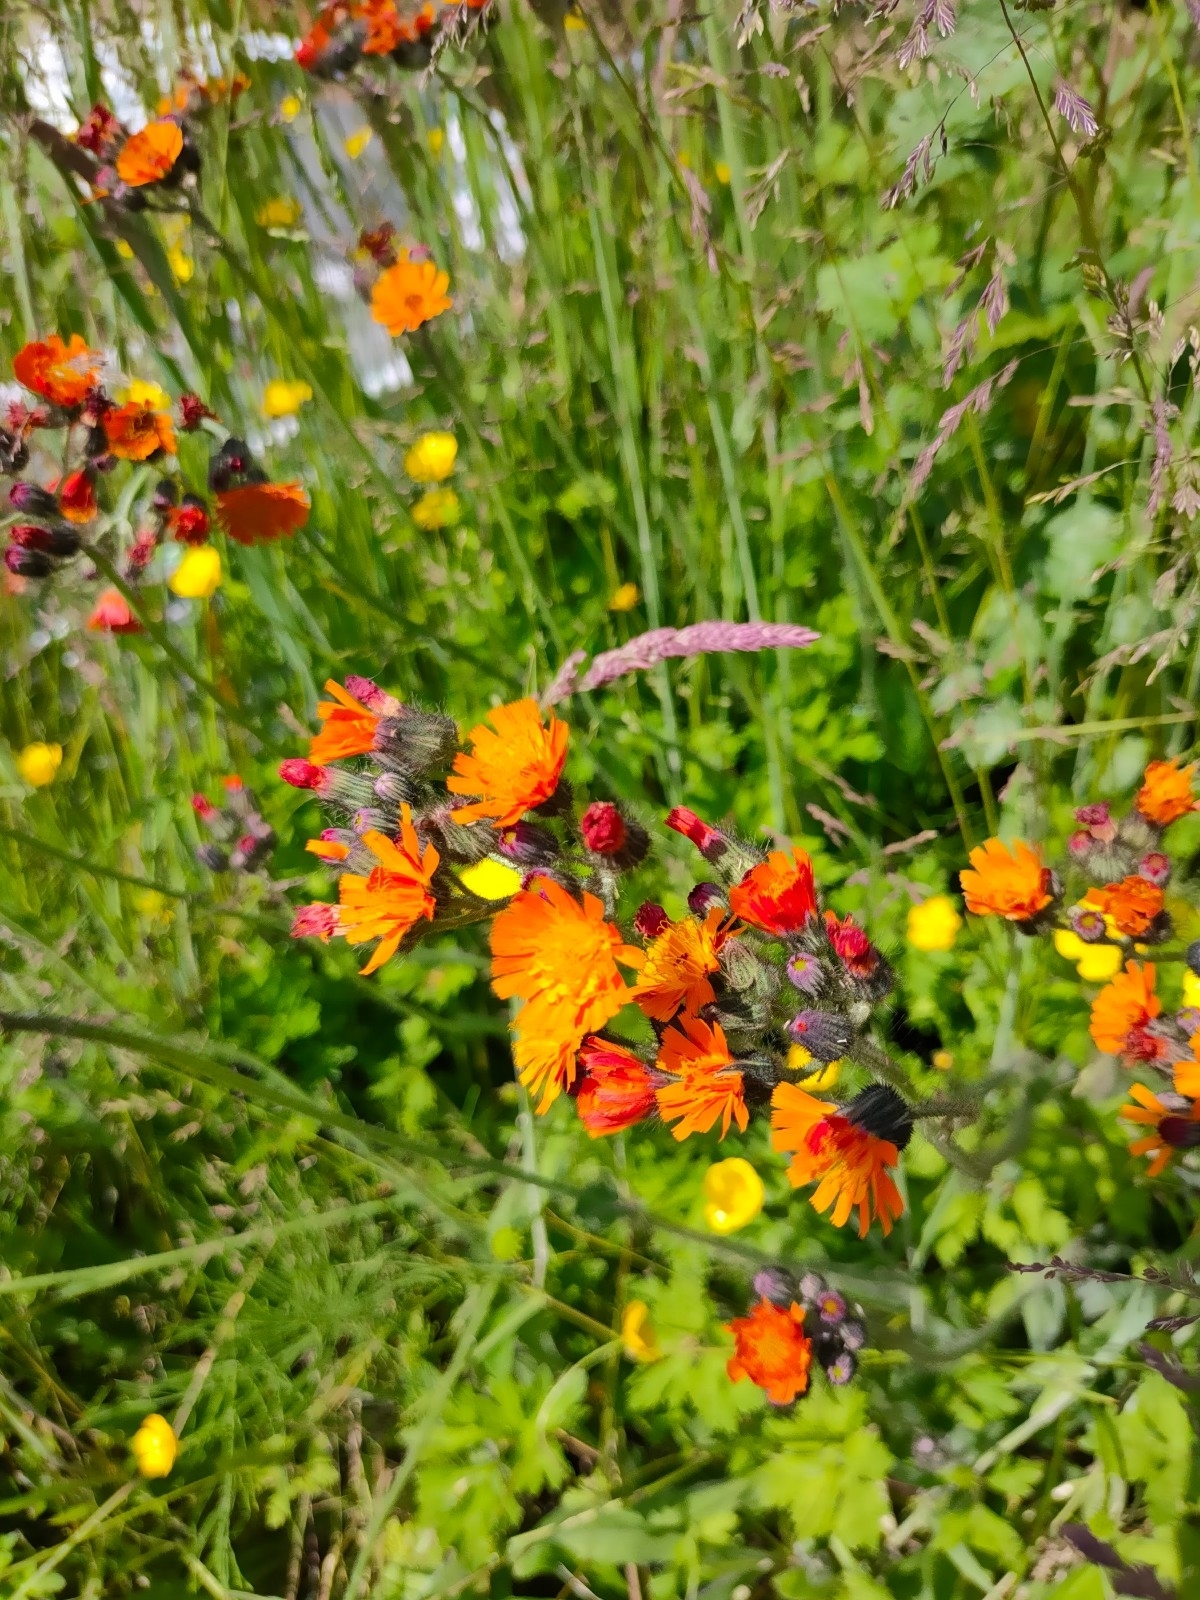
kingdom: Plantae
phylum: Tracheophyta
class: Magnoliopsida
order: Asterales
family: Asteraceae
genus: Pilosella
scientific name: Pilosella aurantiaca
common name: Fox-and-cubs
